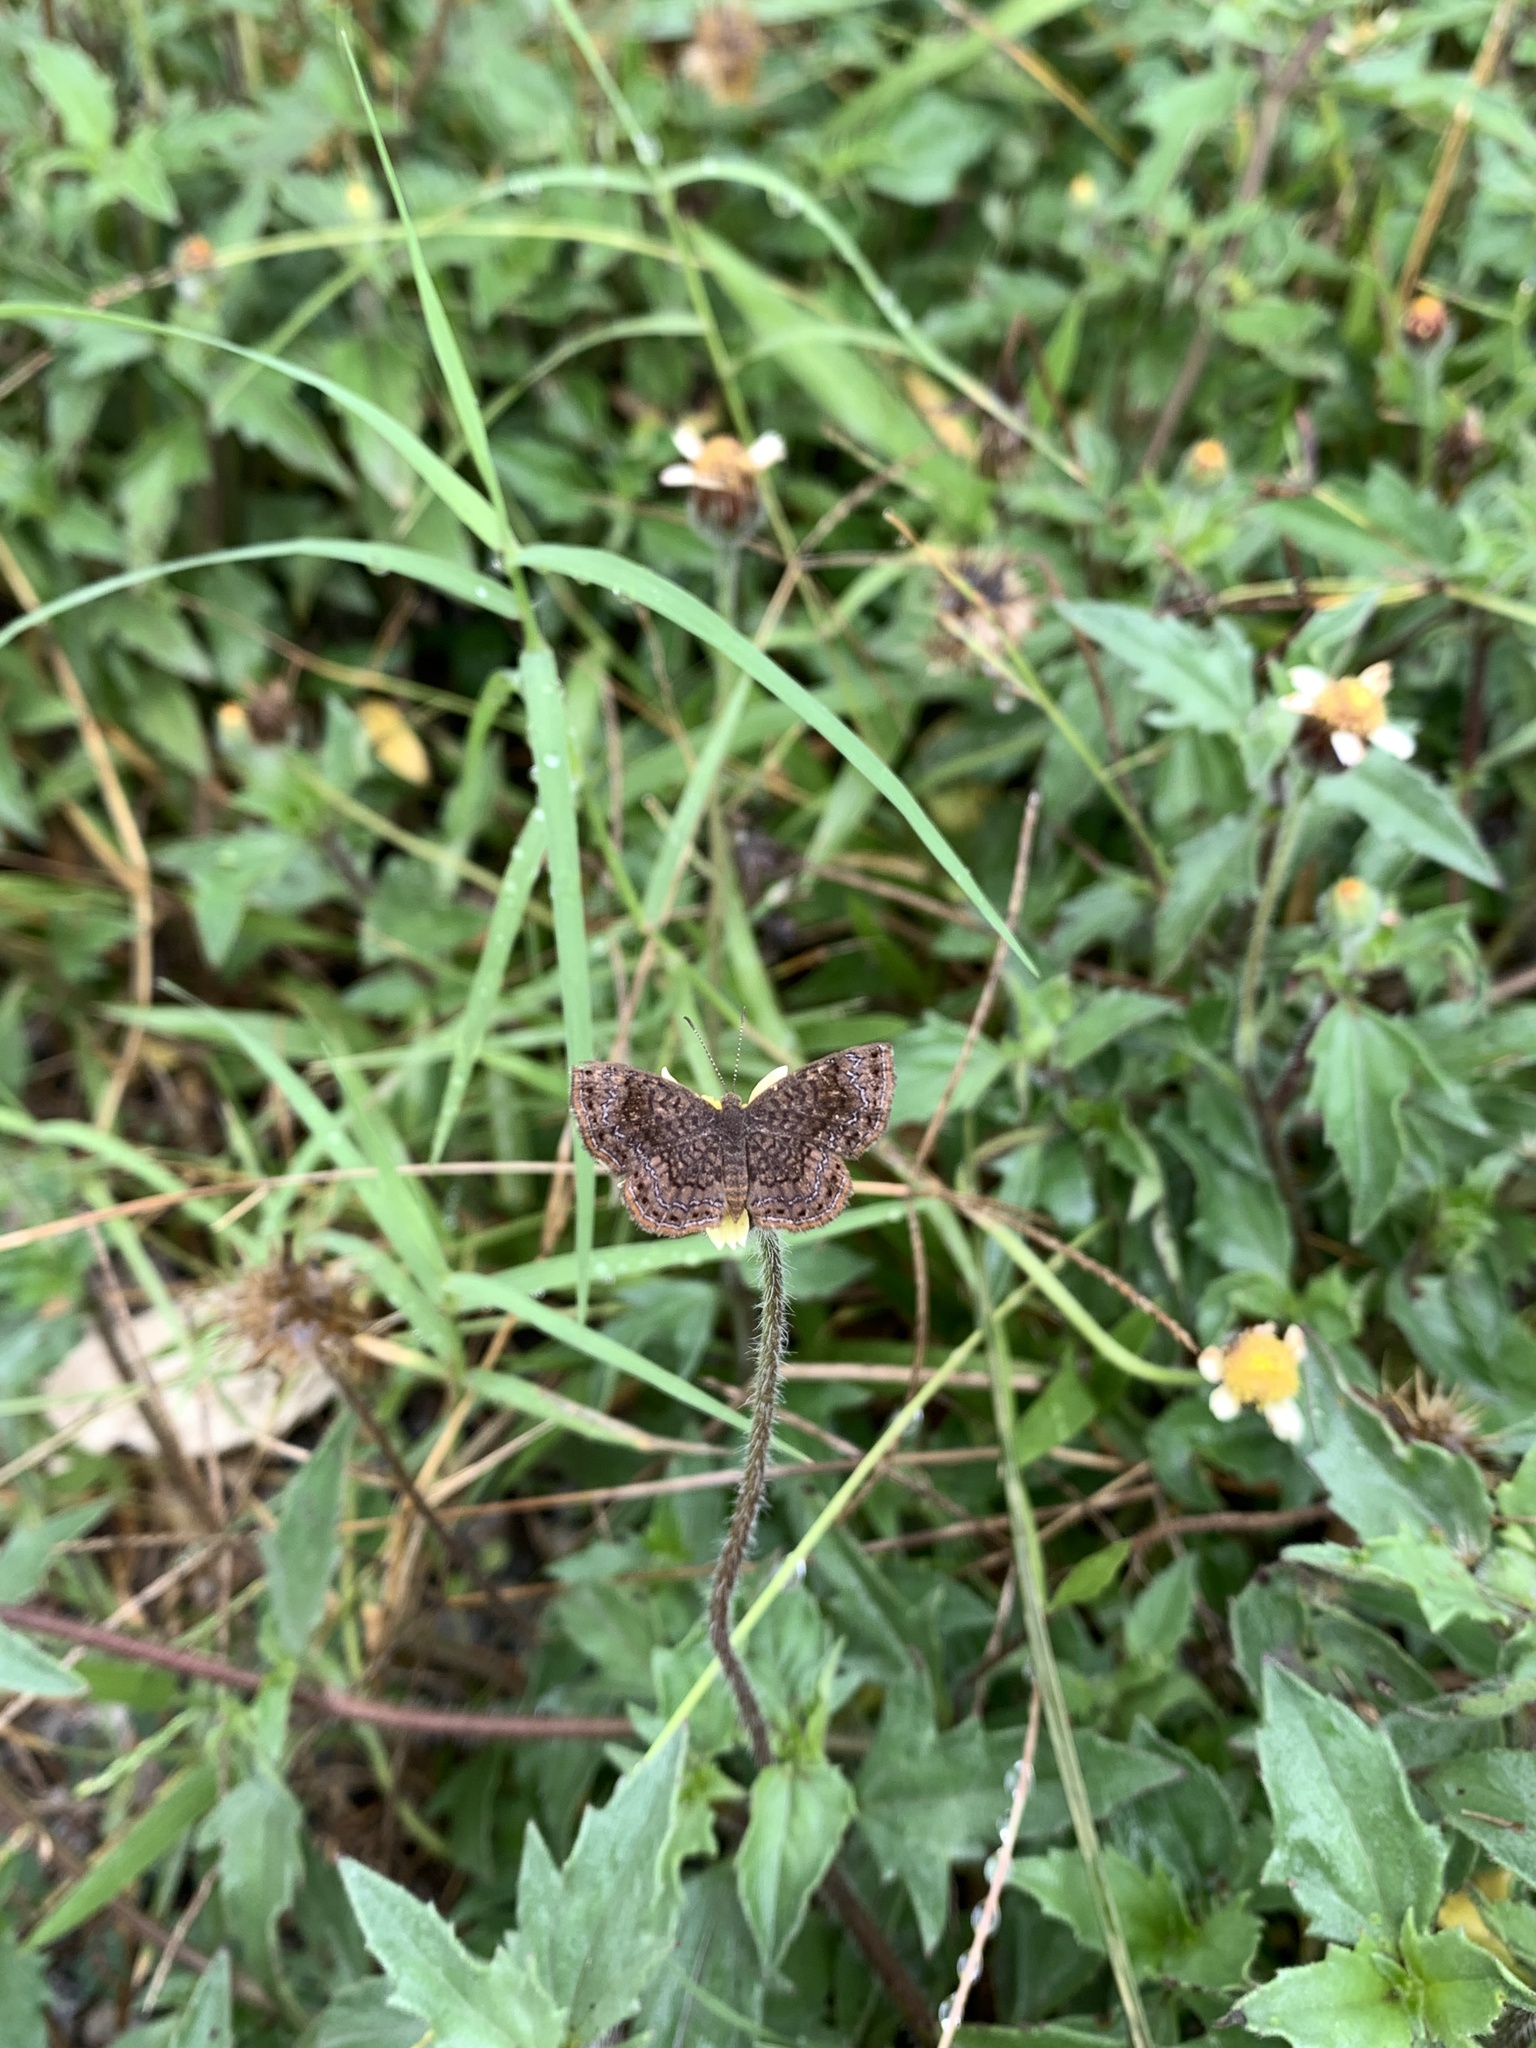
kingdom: Animalia
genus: Calephelis
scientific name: Calephelis perditalis
